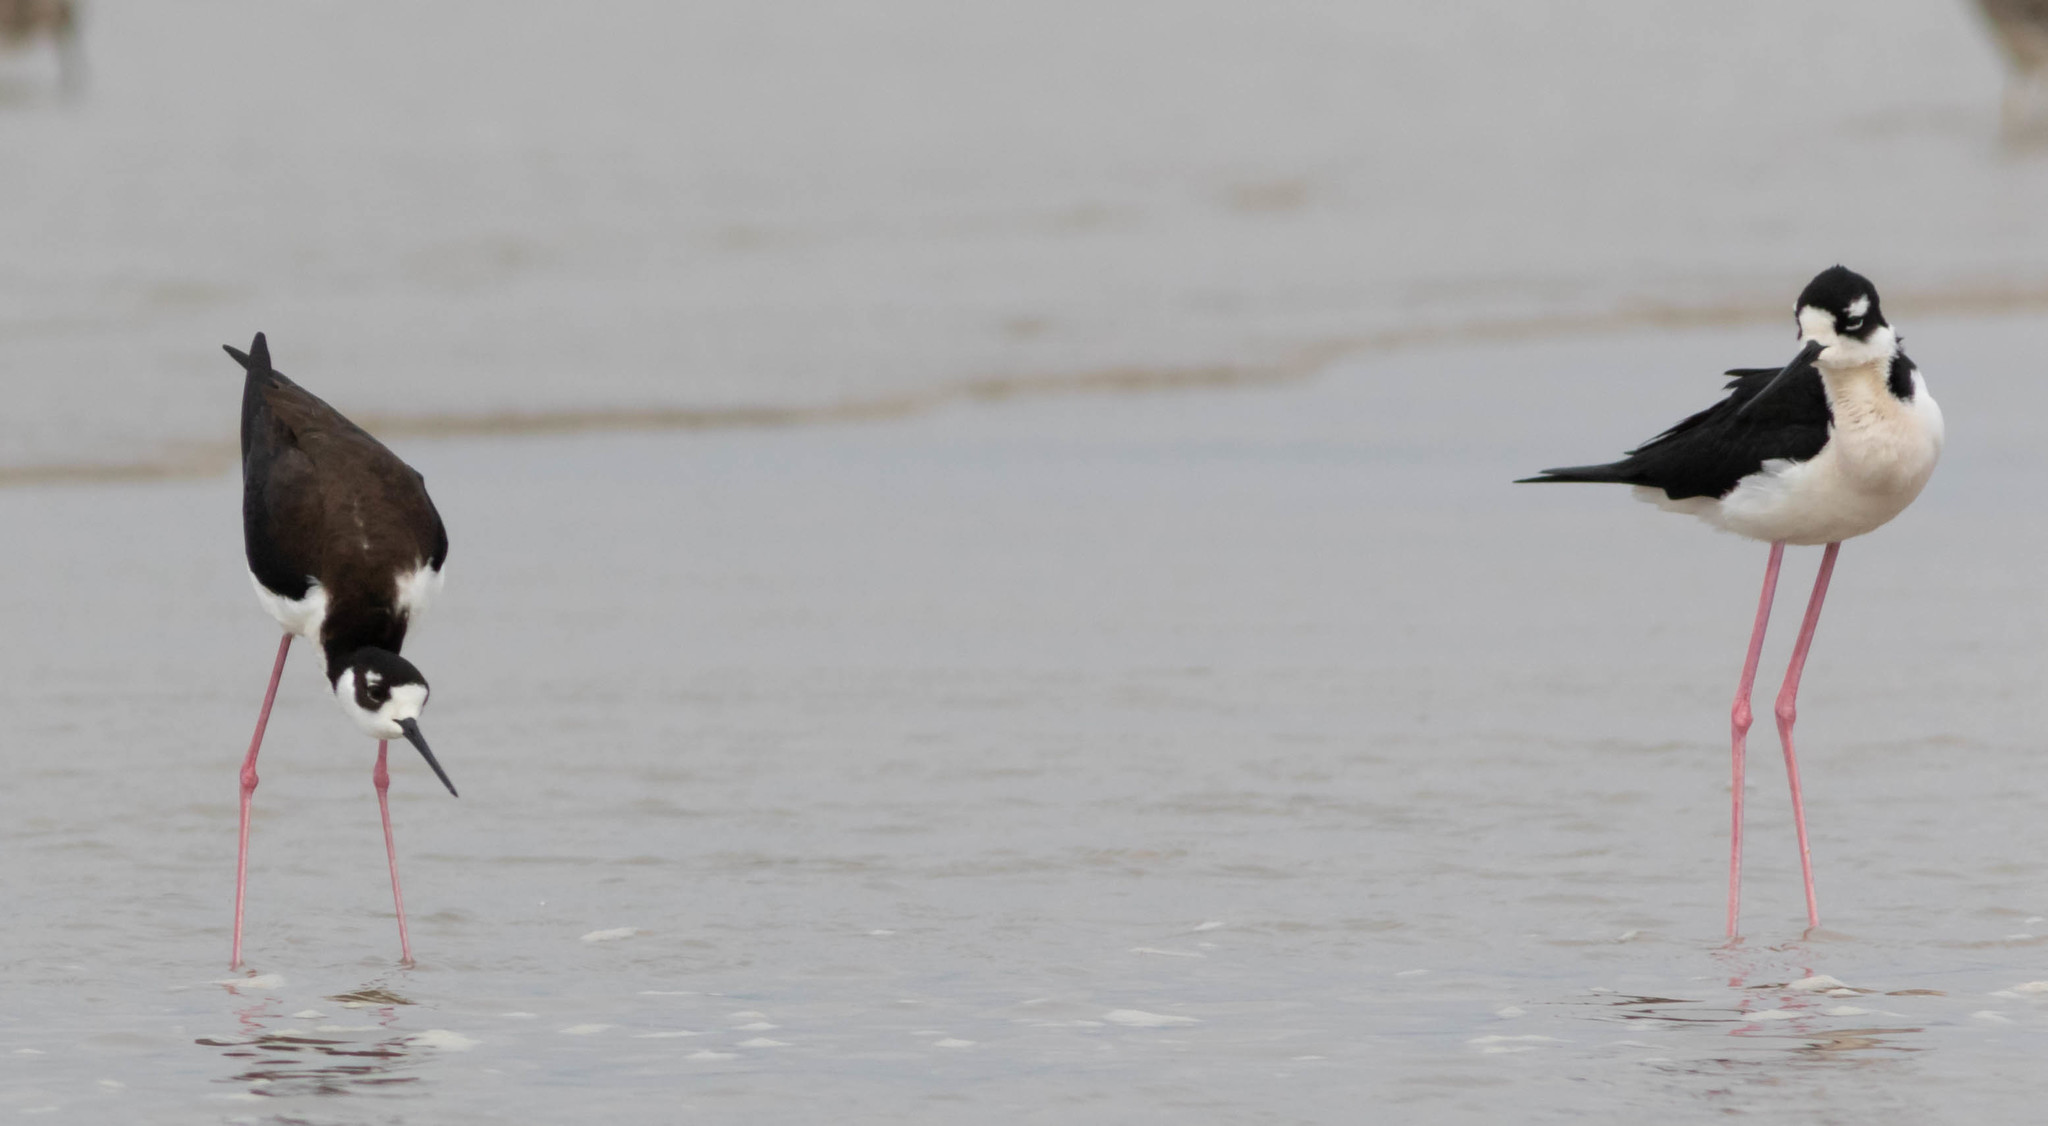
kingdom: Animalia
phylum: Chordata
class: Aves
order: Charadriiformes
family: Recurvirostridae
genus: Himantopus
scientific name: Himantopus mexicanus
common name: Black-necked stilt
